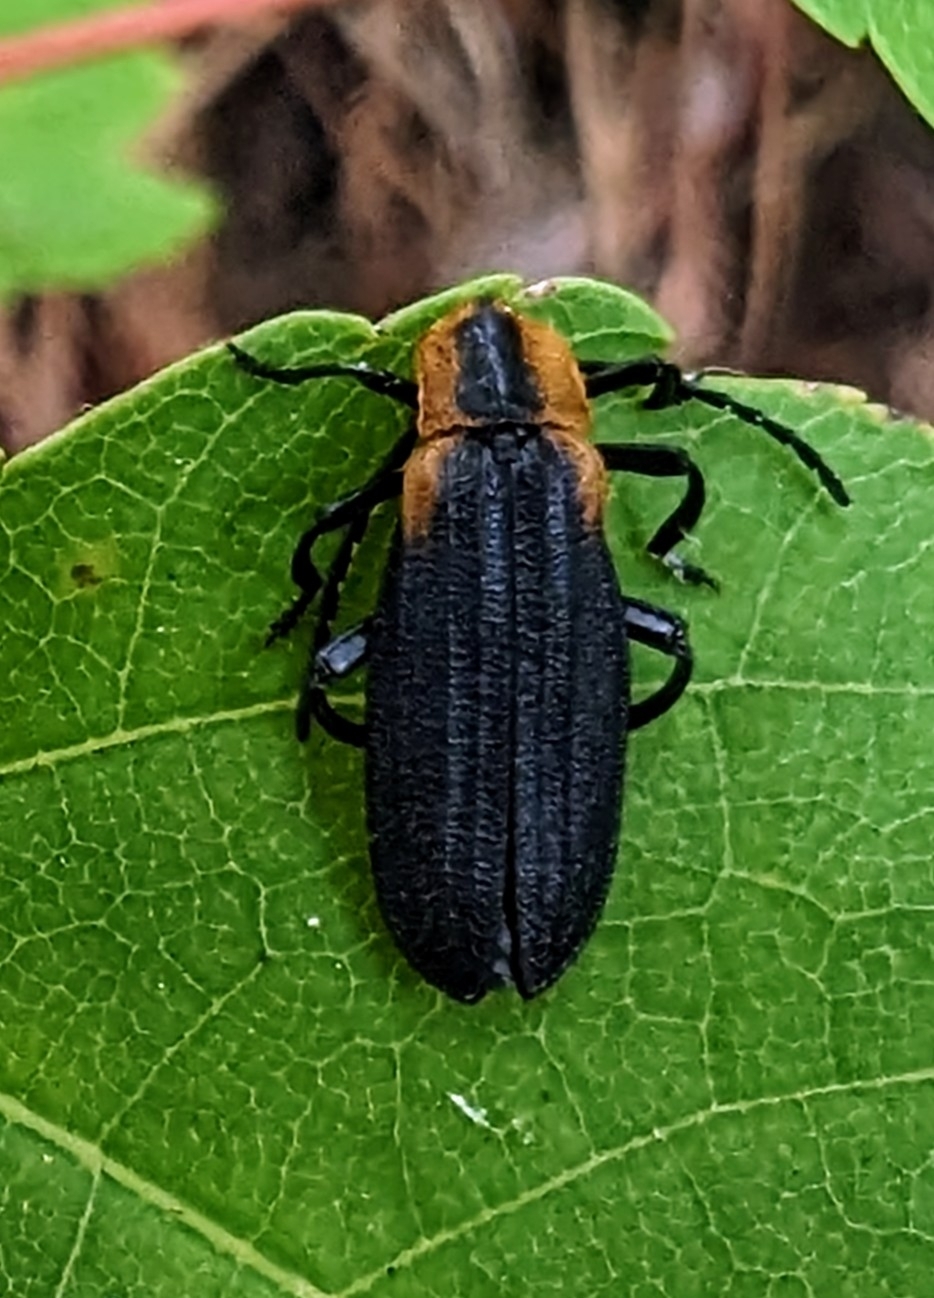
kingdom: Animalia
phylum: Arthropoda
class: Insecta
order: Coleoptera
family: Lycidae
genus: Lyconotus
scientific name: Lyconotus lateralis
